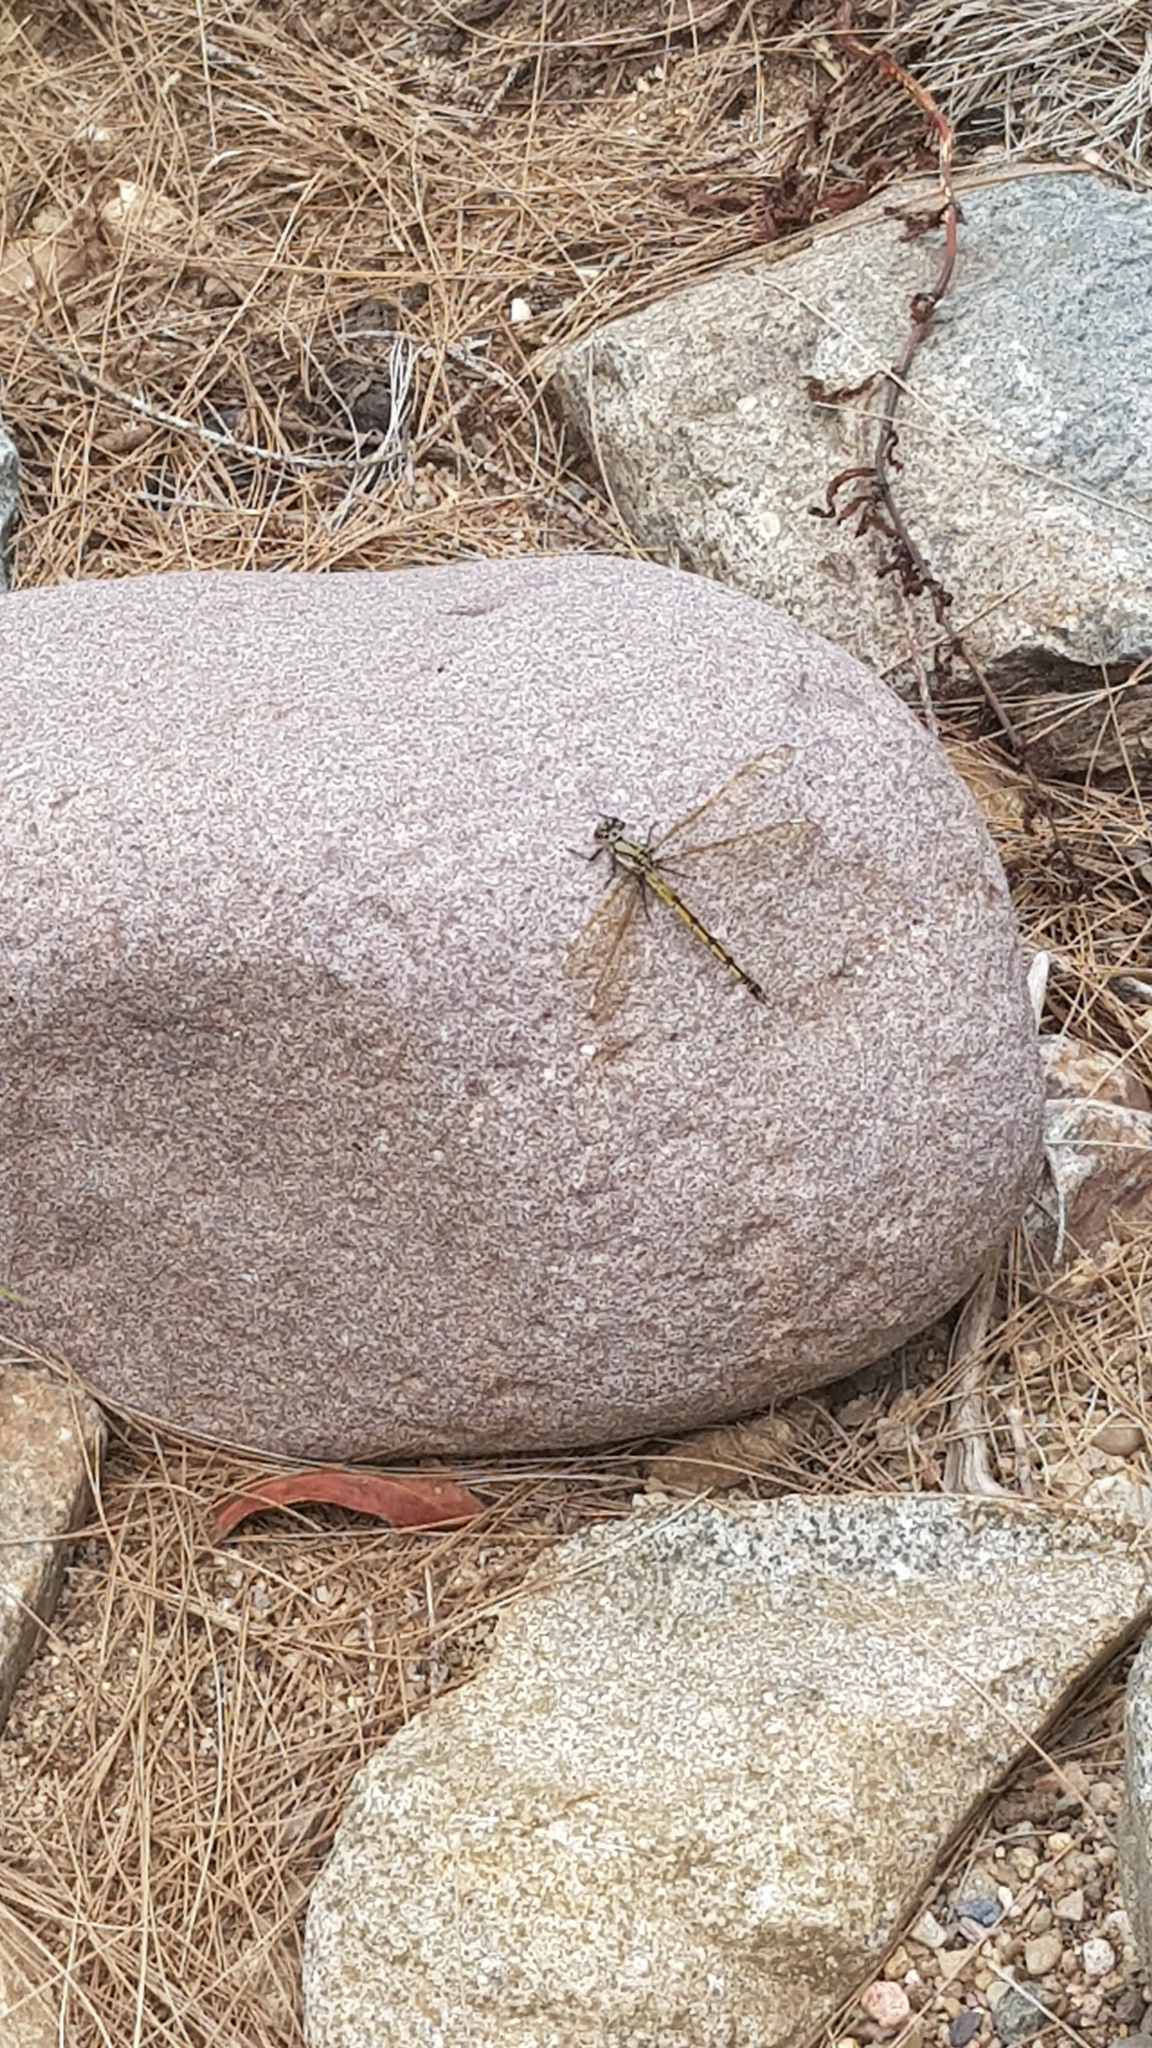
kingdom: Animalia
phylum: Arthropoda
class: Insecta
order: Odonata
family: Lestoideidae
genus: Diphlebia
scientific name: Diphlebia nymphoides
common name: Arrowhead rockmaster
